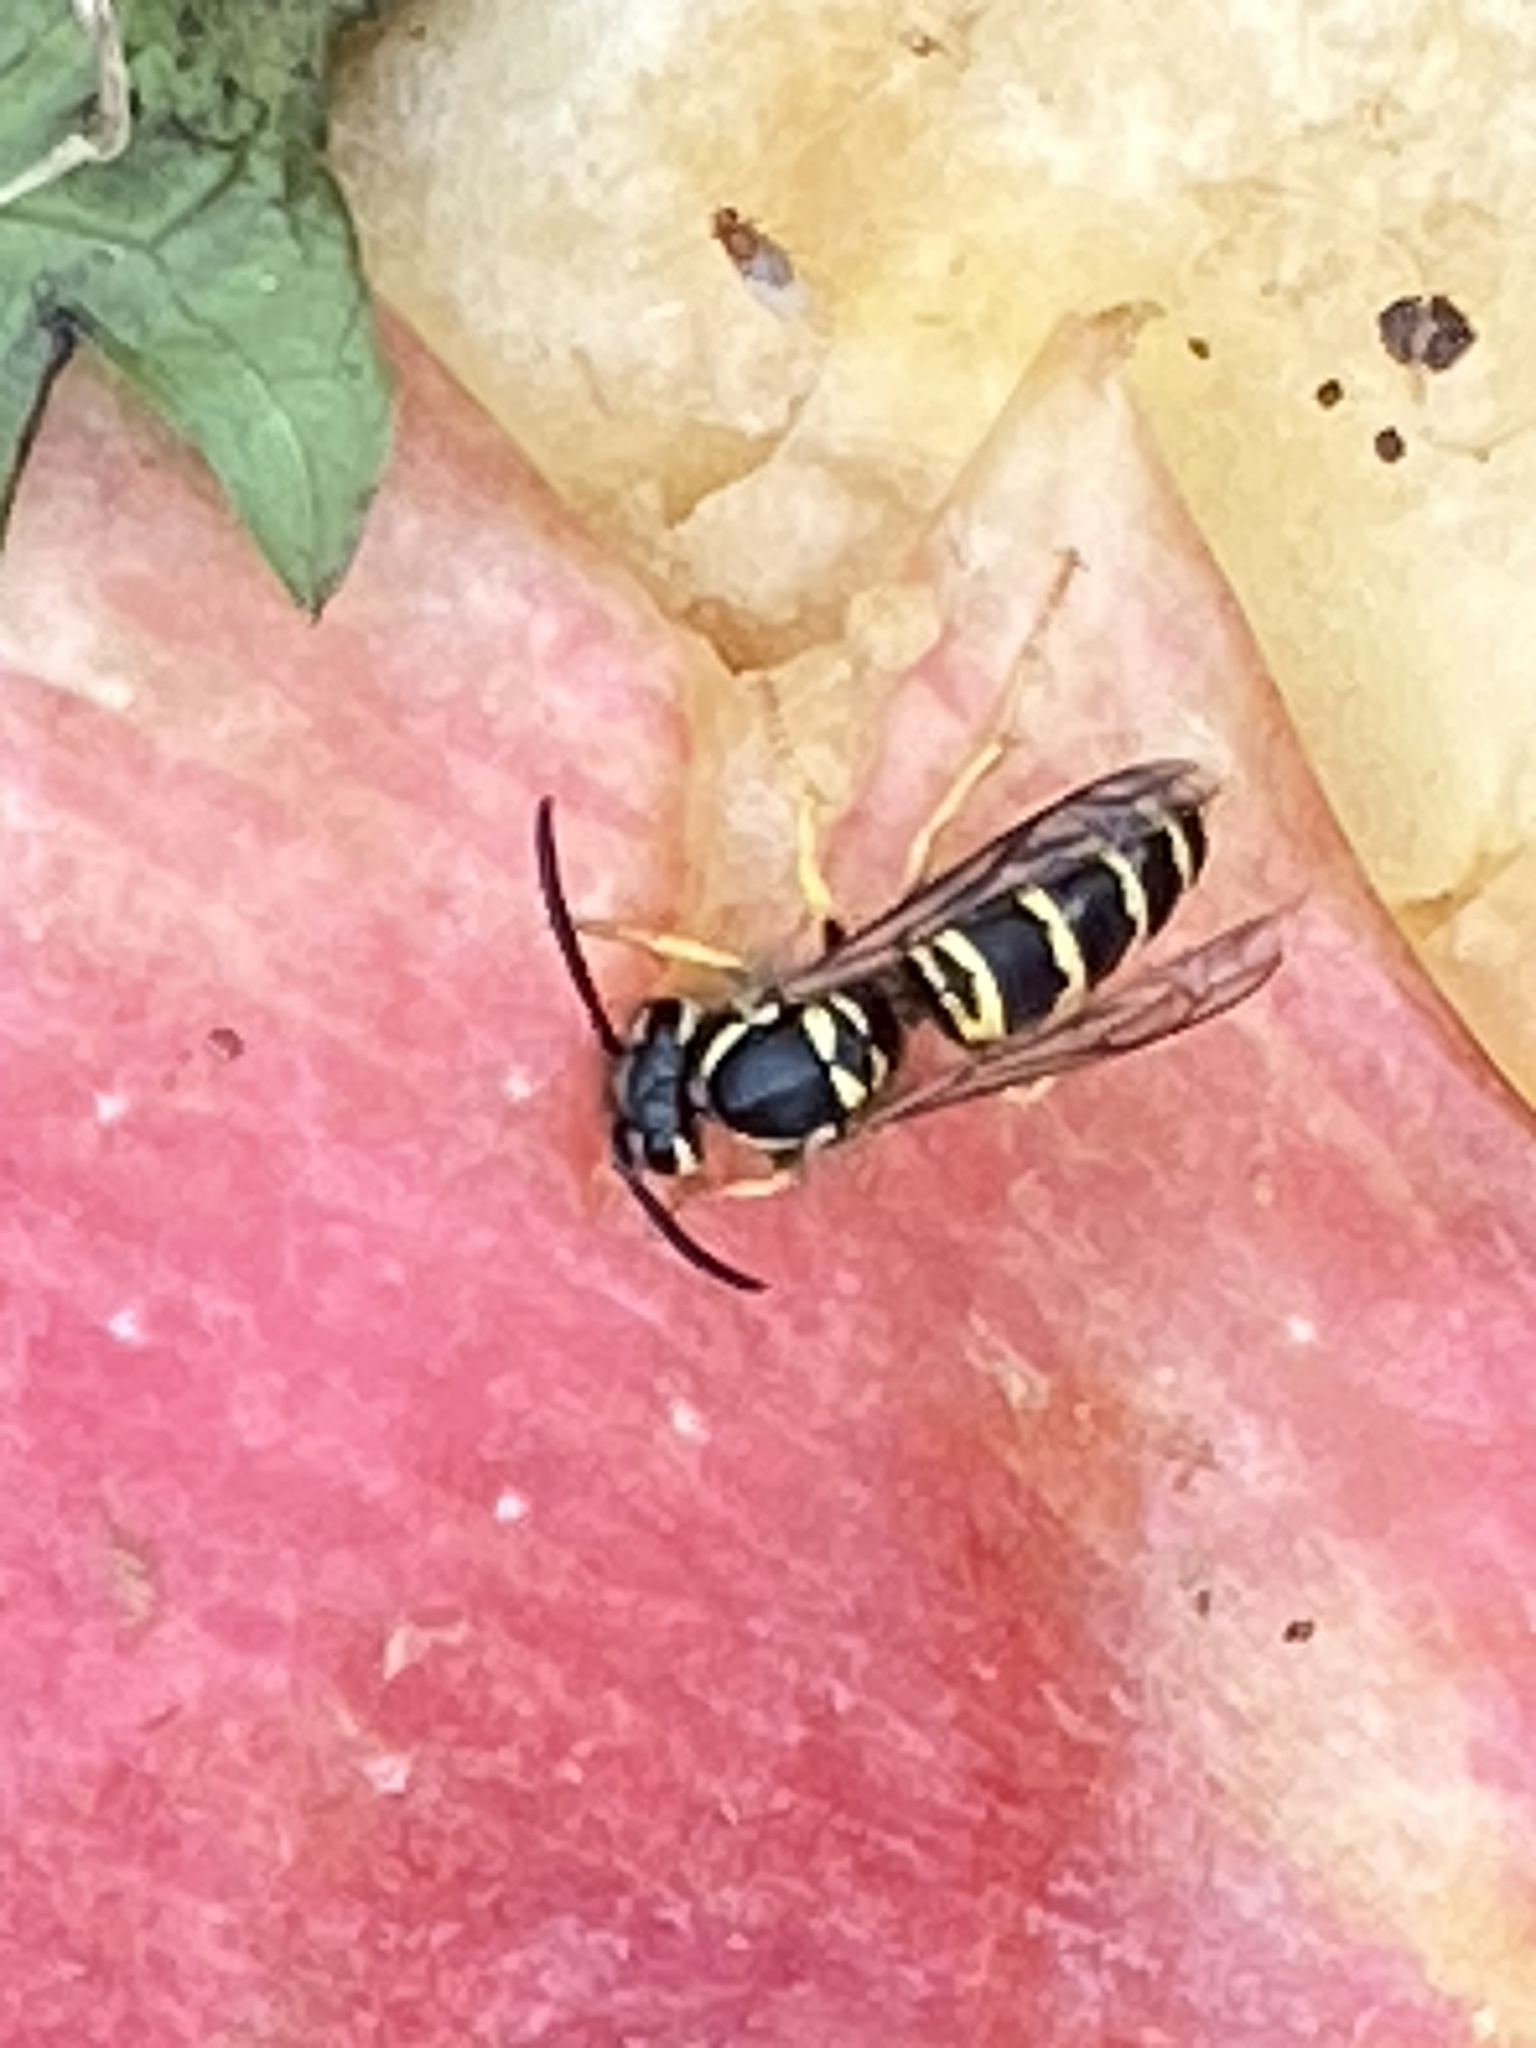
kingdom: Animalia
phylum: Arthropoda
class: Insecta
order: Hymenoptera
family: Vespidae
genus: Vespula
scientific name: Vespula maculifrons
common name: Eastern yellowjacket
